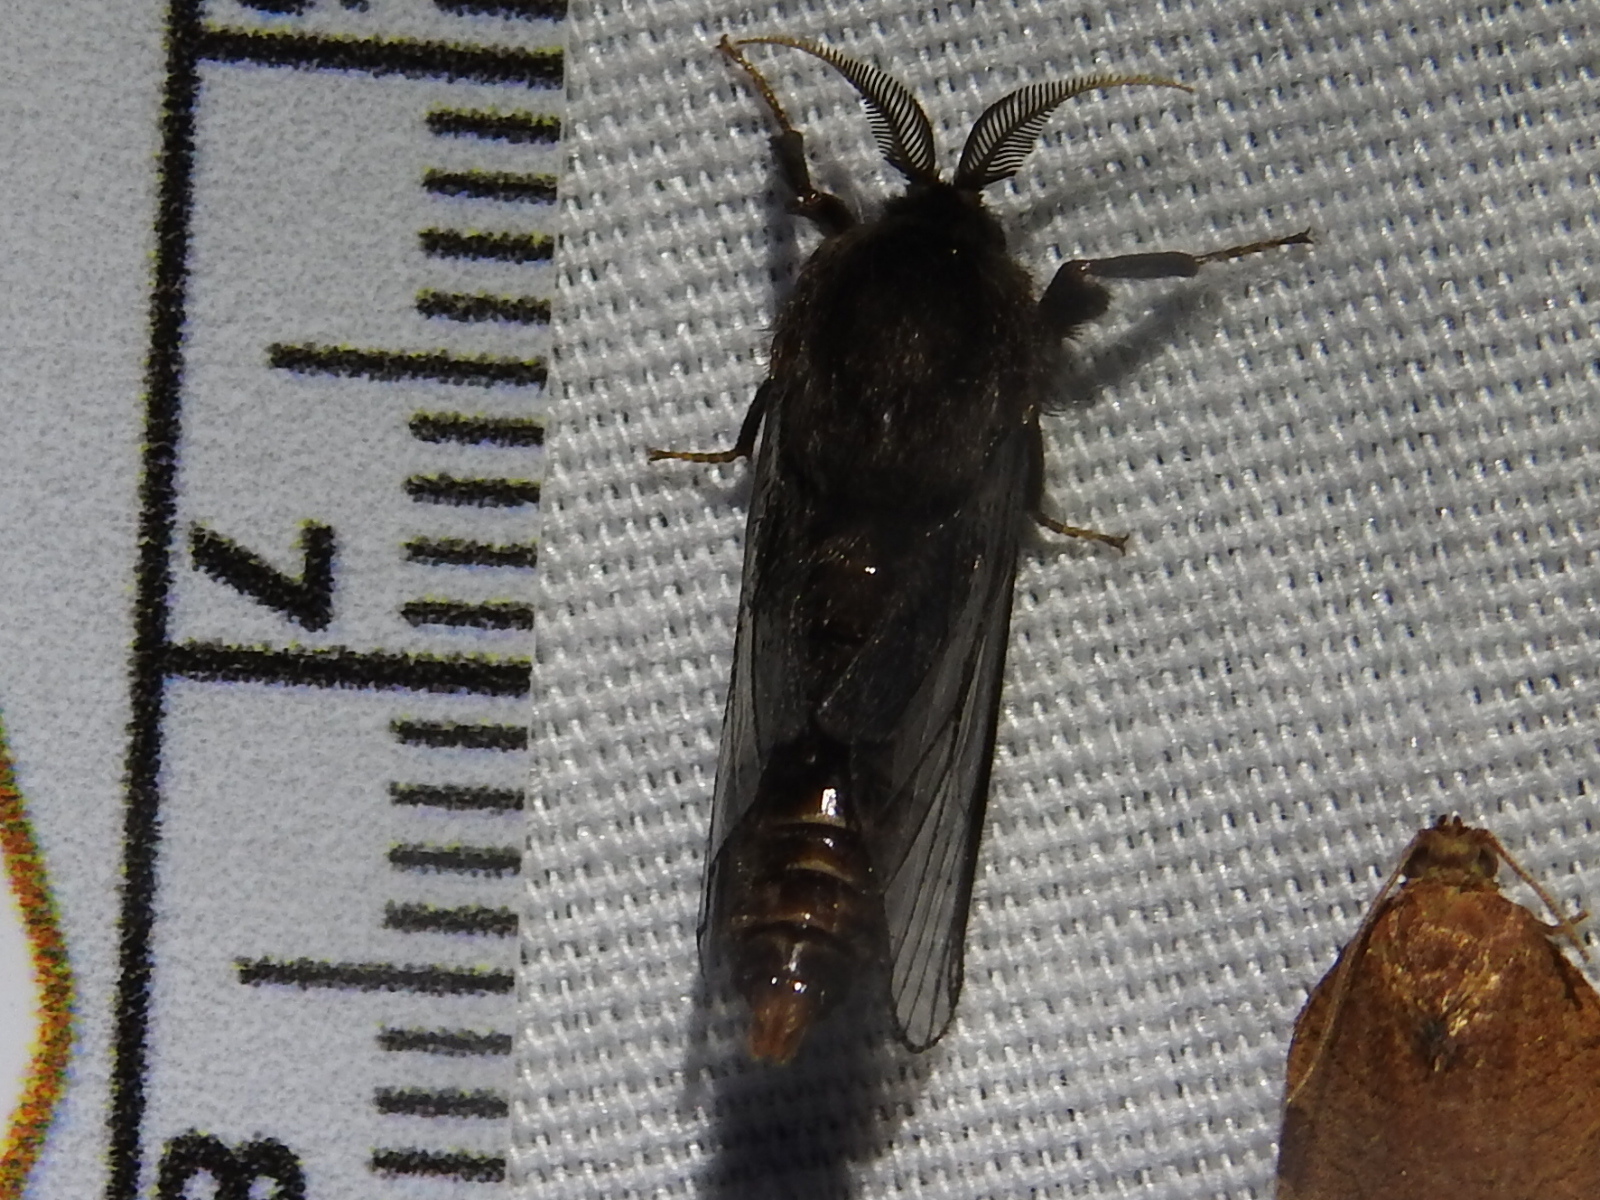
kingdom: Animalia
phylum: Arthropoda
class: Insecta
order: Lepidoptera
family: Psychidae
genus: Thyridopteryx
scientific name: Thyridopteryx ephemeraeformis
